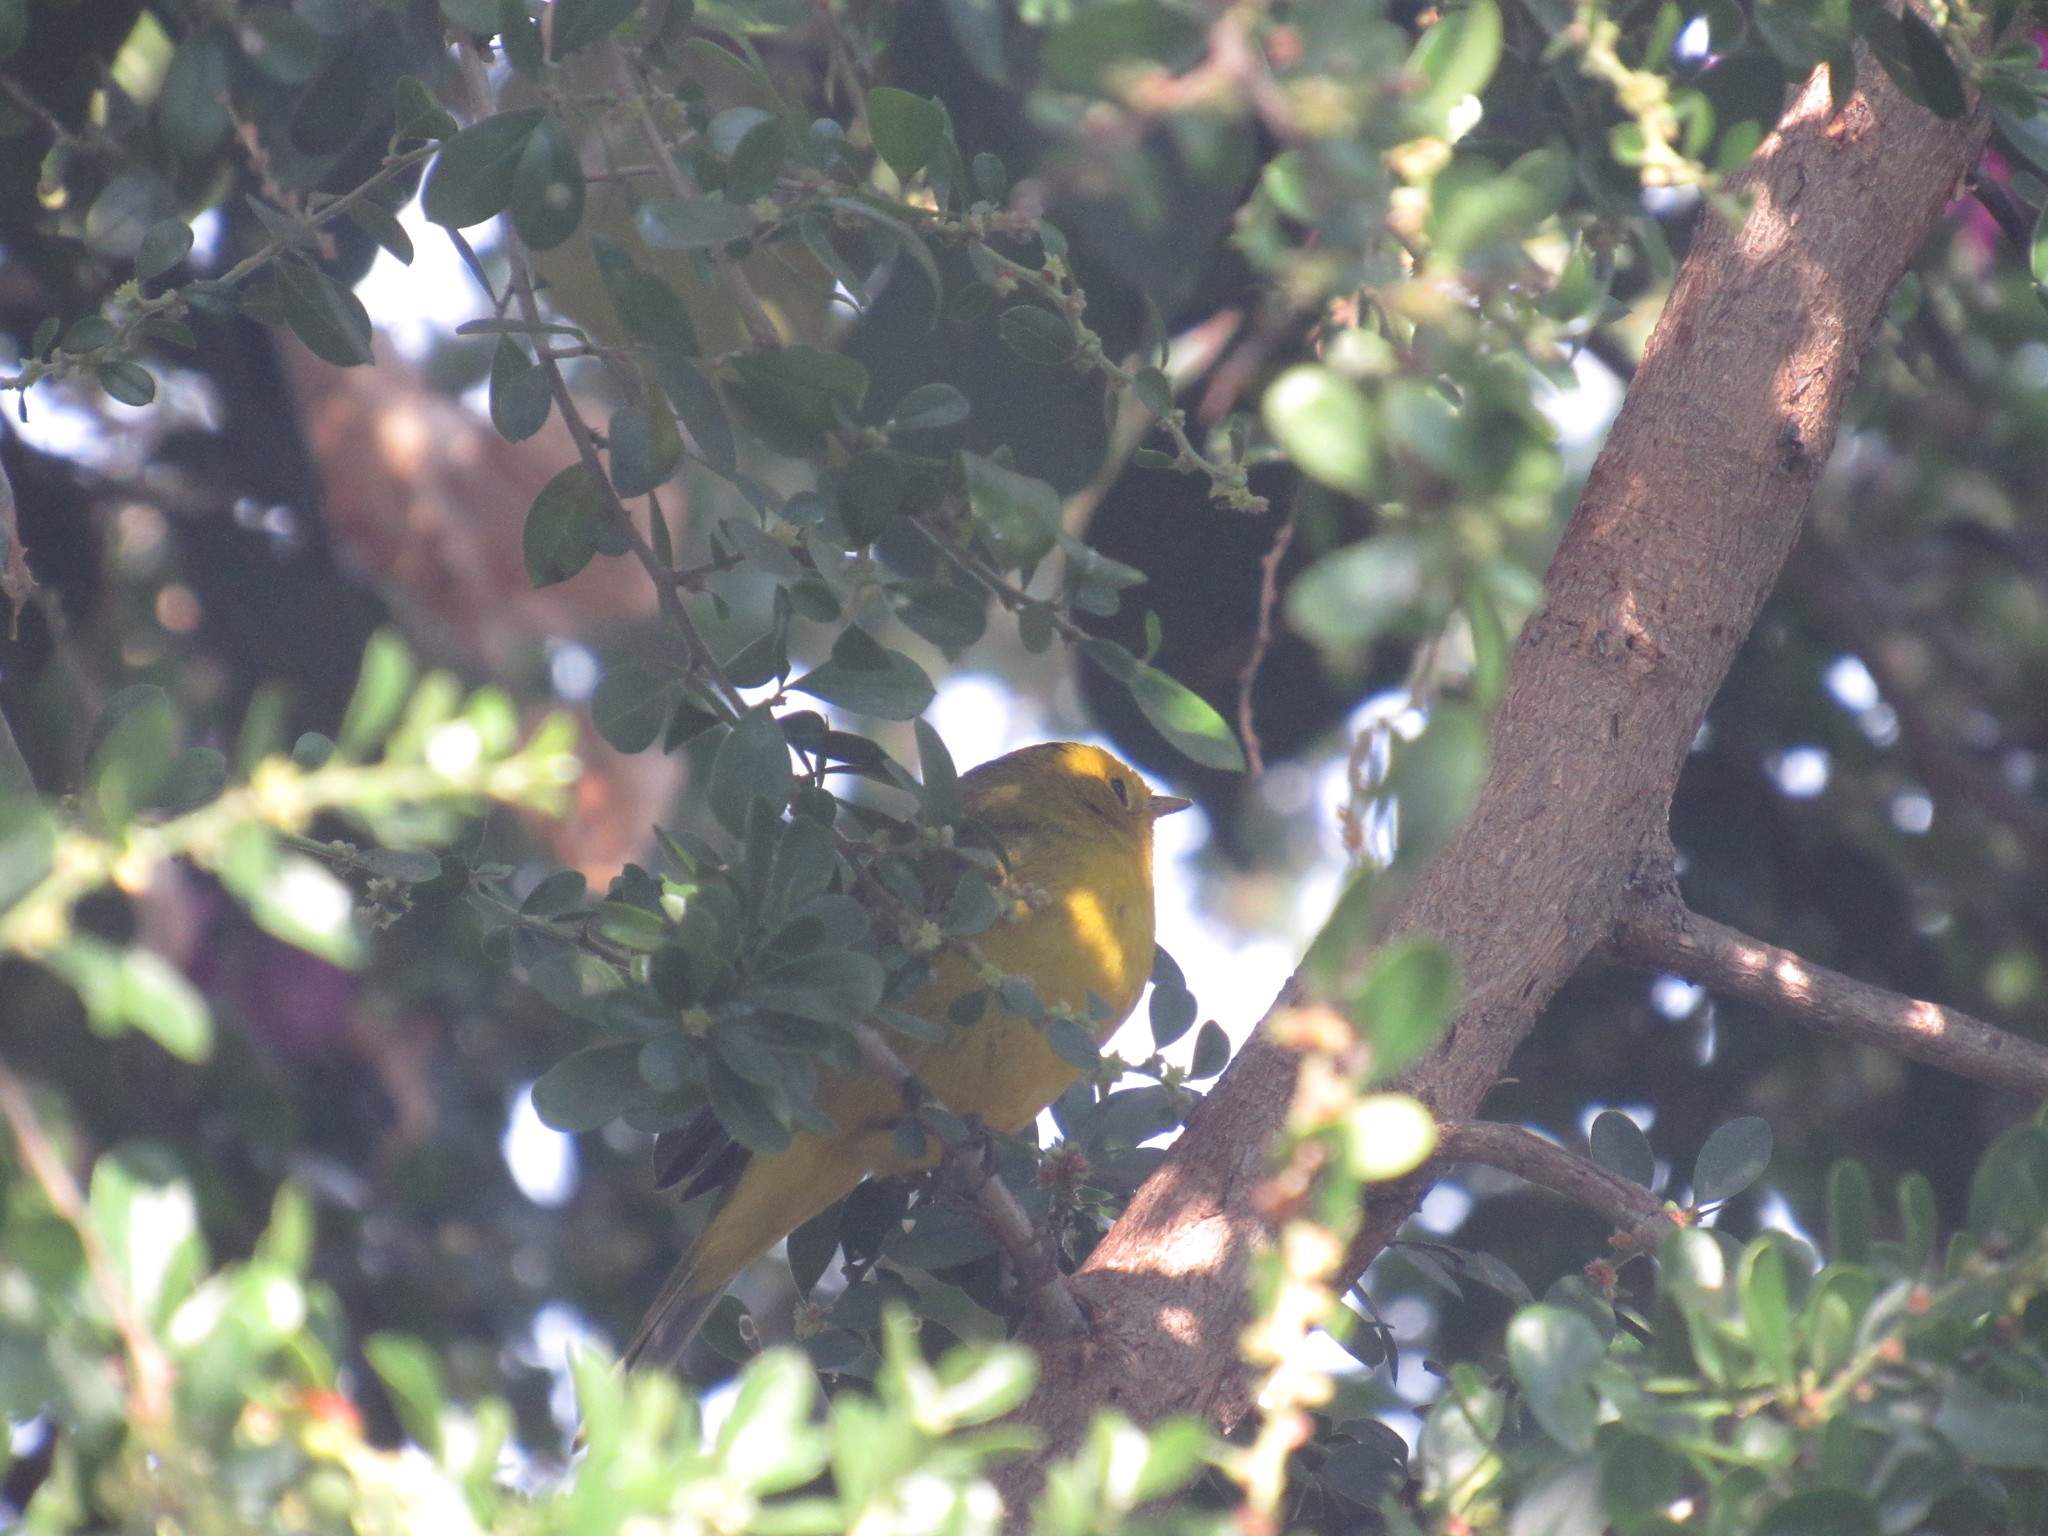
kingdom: Animalia
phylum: Chordata
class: Aves
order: Passeriformes
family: Parulidae
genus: Cardellina
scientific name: Cardellina pusilla
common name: Wilson's warbler
